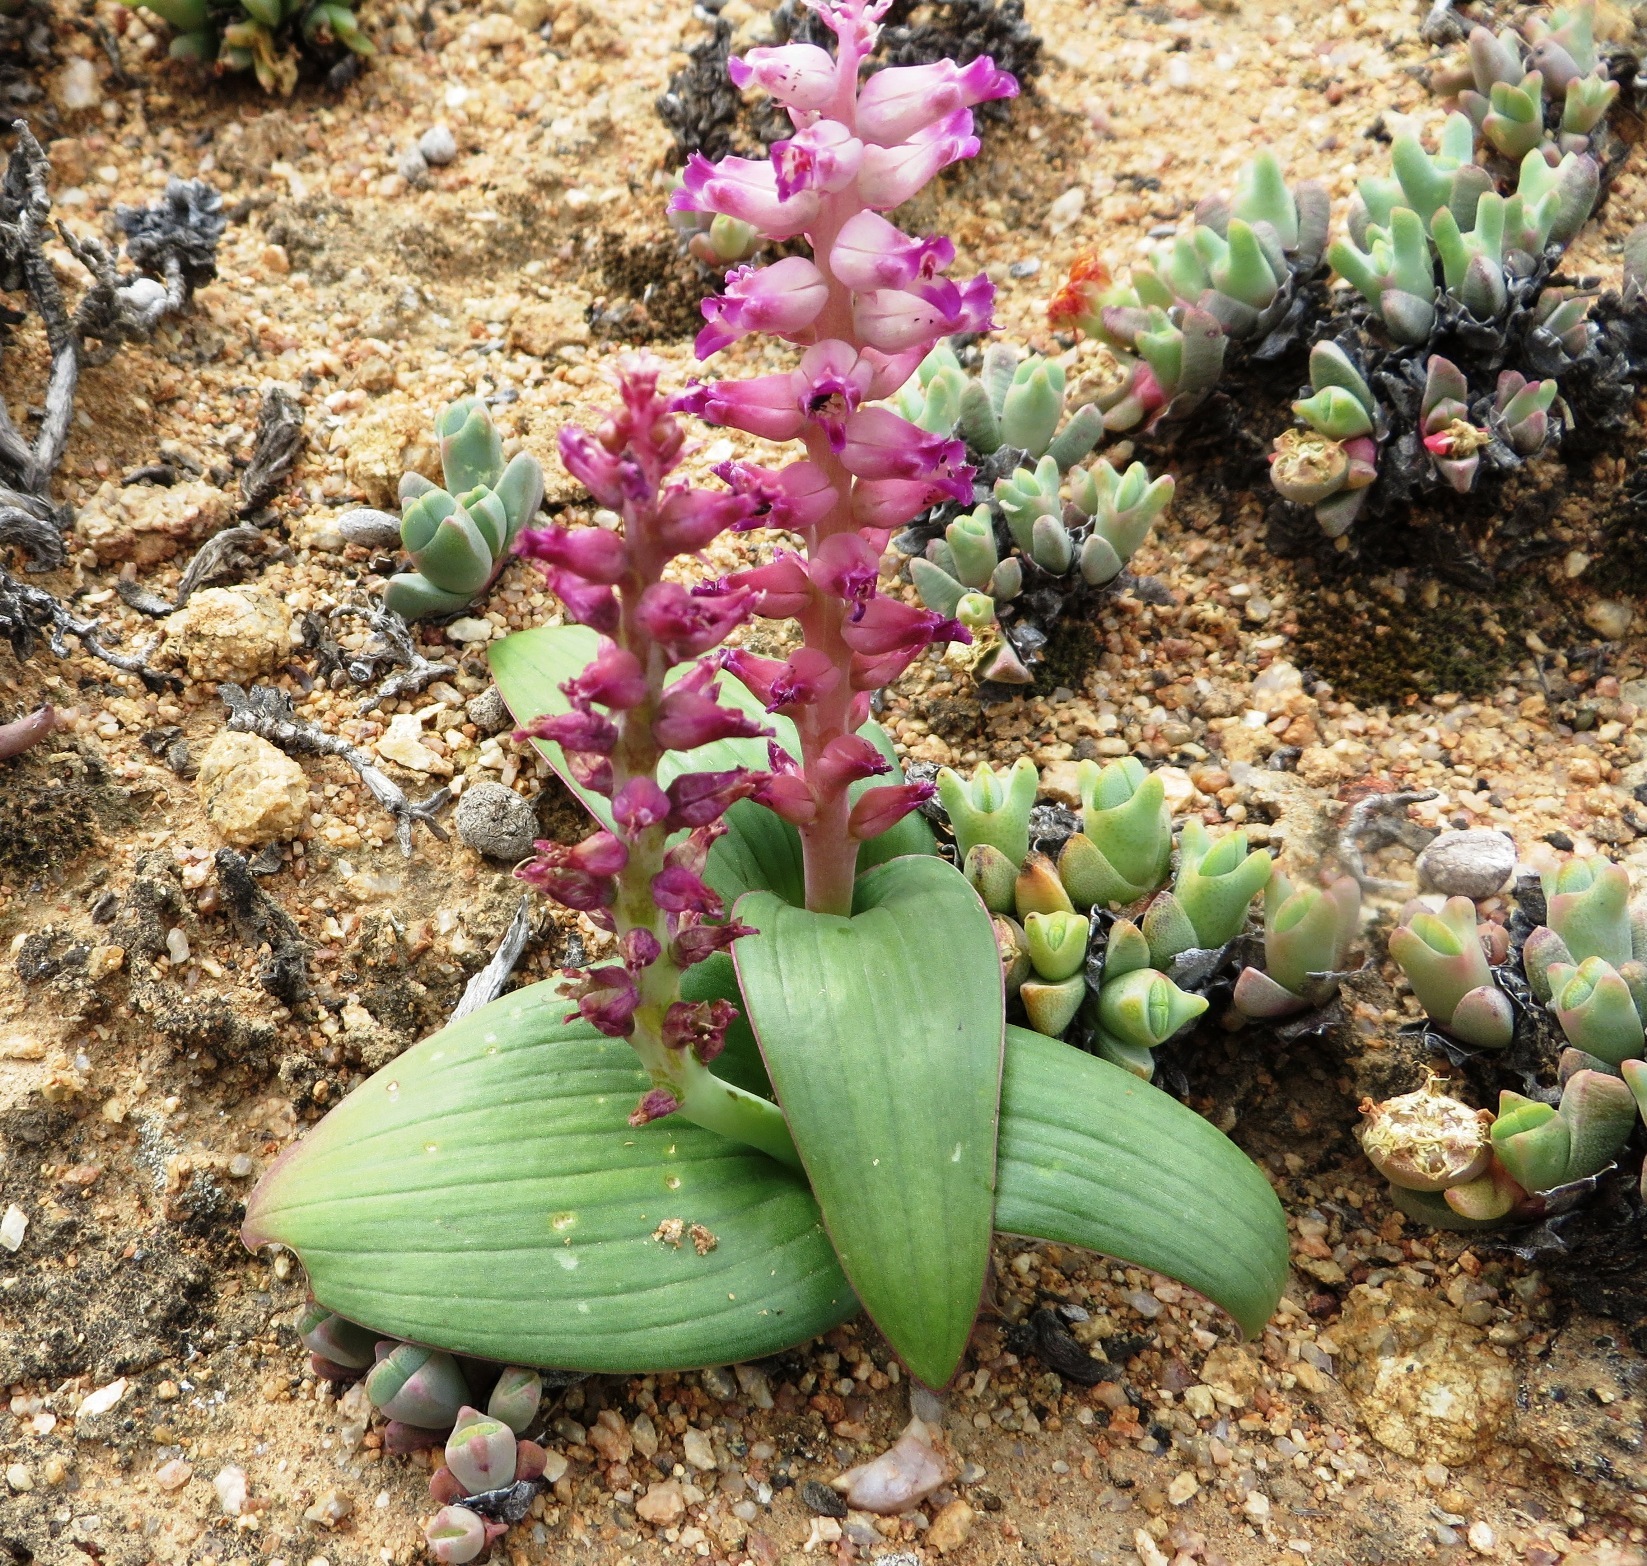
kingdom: Plantae
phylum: Tracheophyta
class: Liliopsida
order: Asparagales
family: Asparagaceae
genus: Lachenalia
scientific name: Lachenalia carnosa
